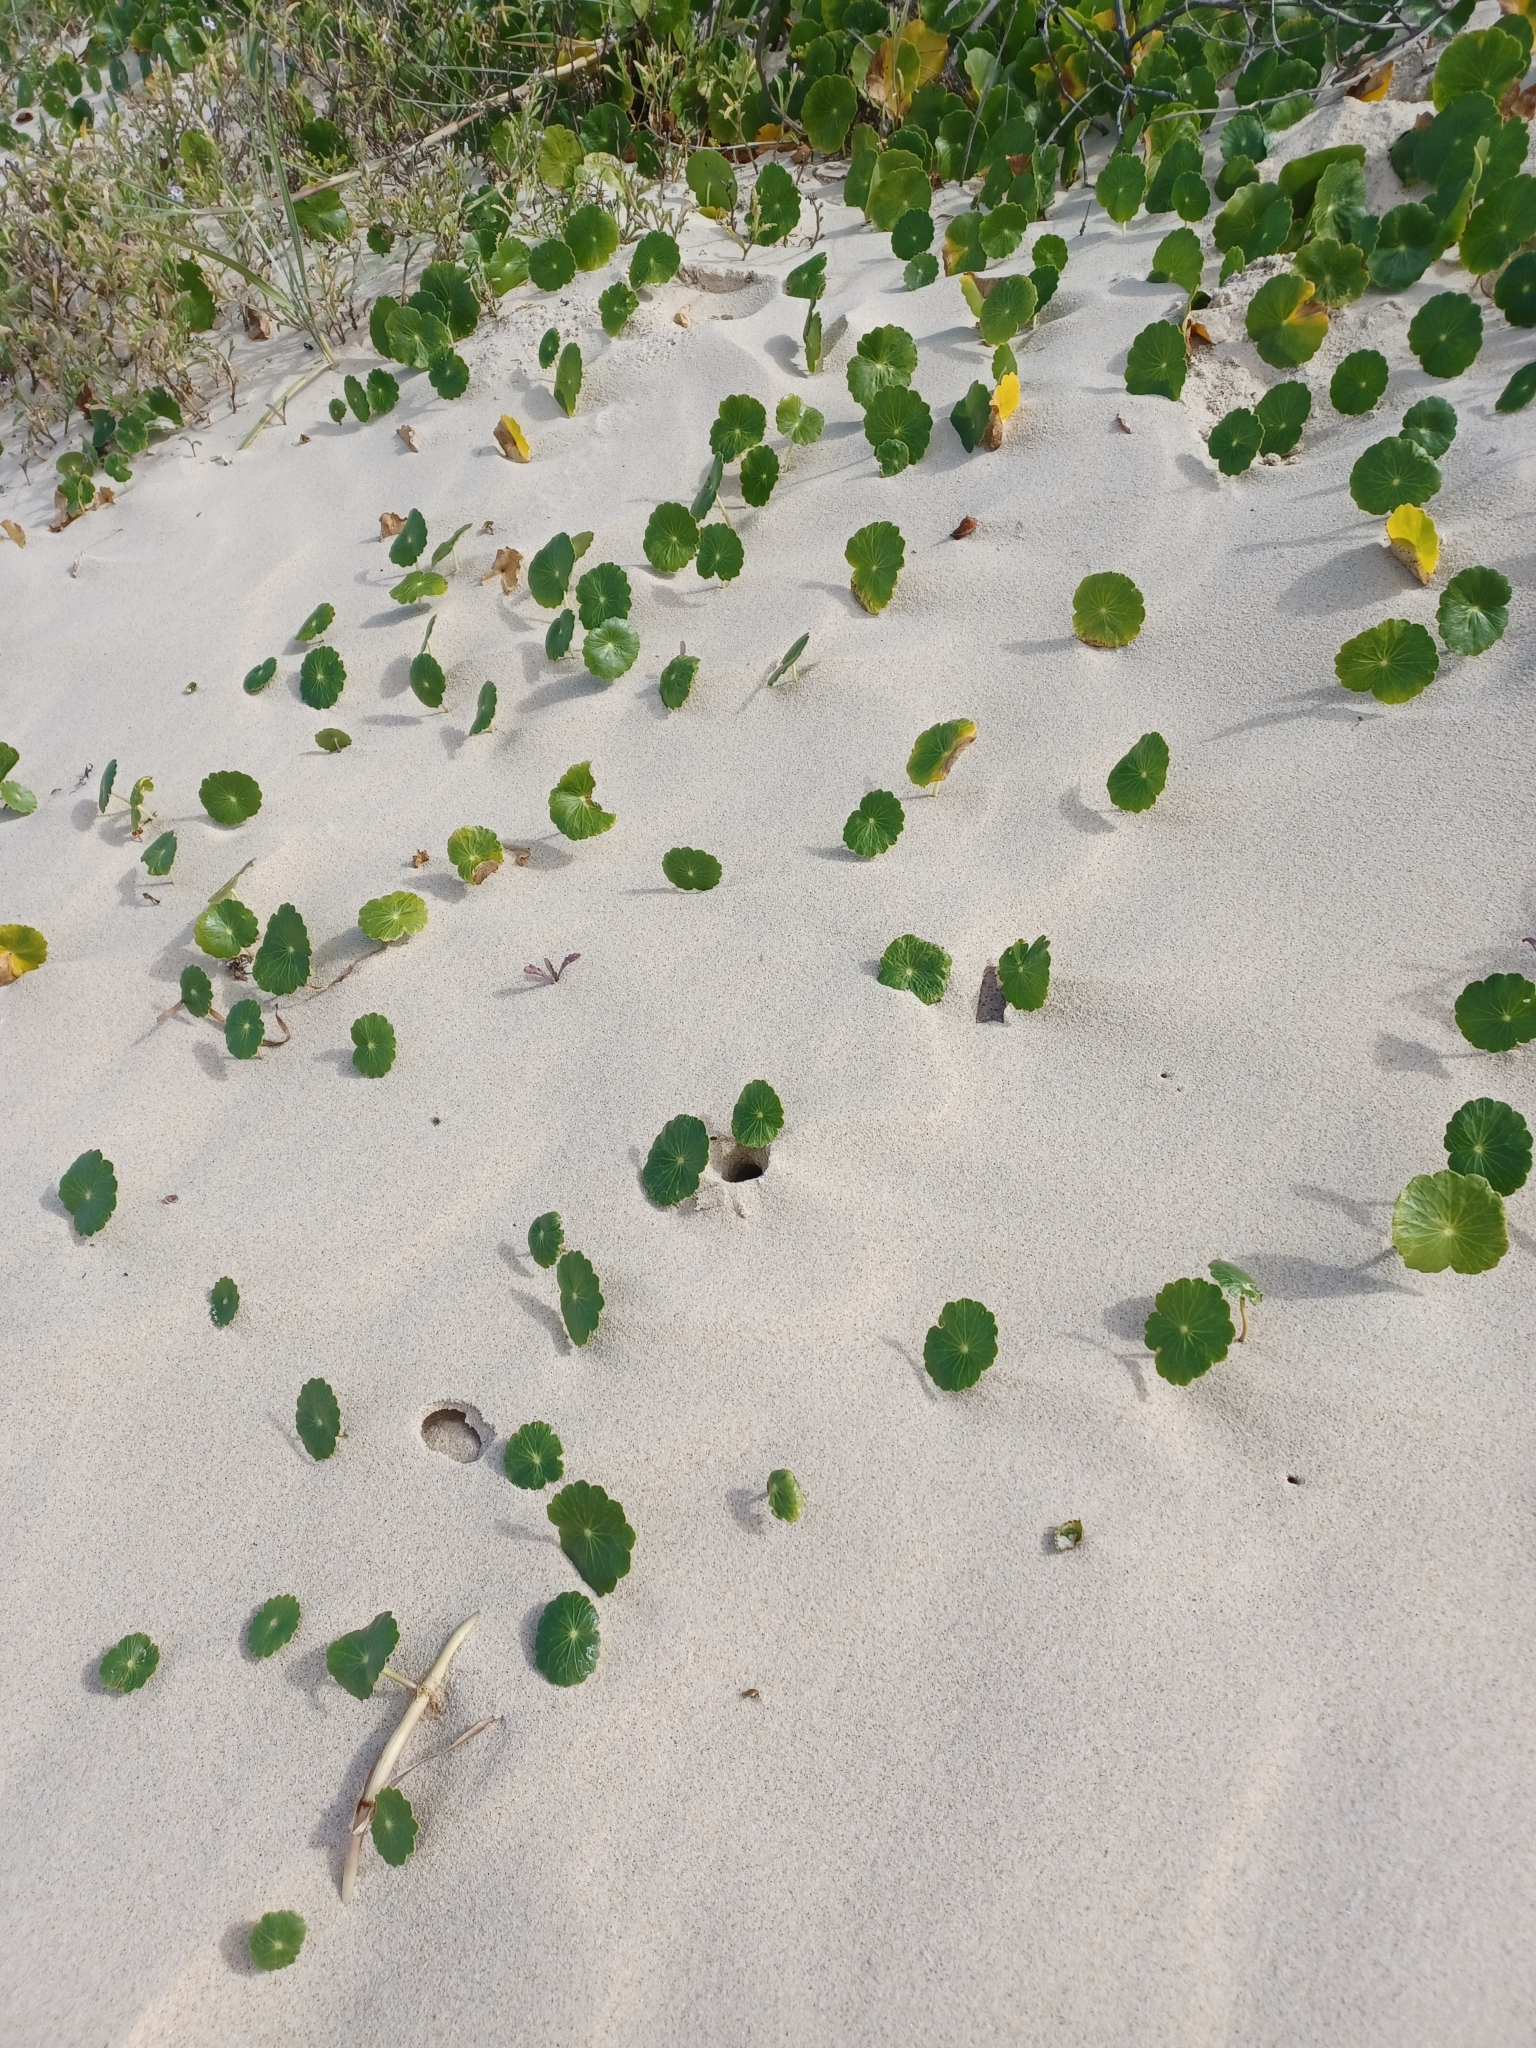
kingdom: Plantae
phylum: Tracheophyta
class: Magnoliopsida
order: Apiales
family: Araliaceae
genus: Hydrocotyle
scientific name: Hydrocotyle bonariensis
